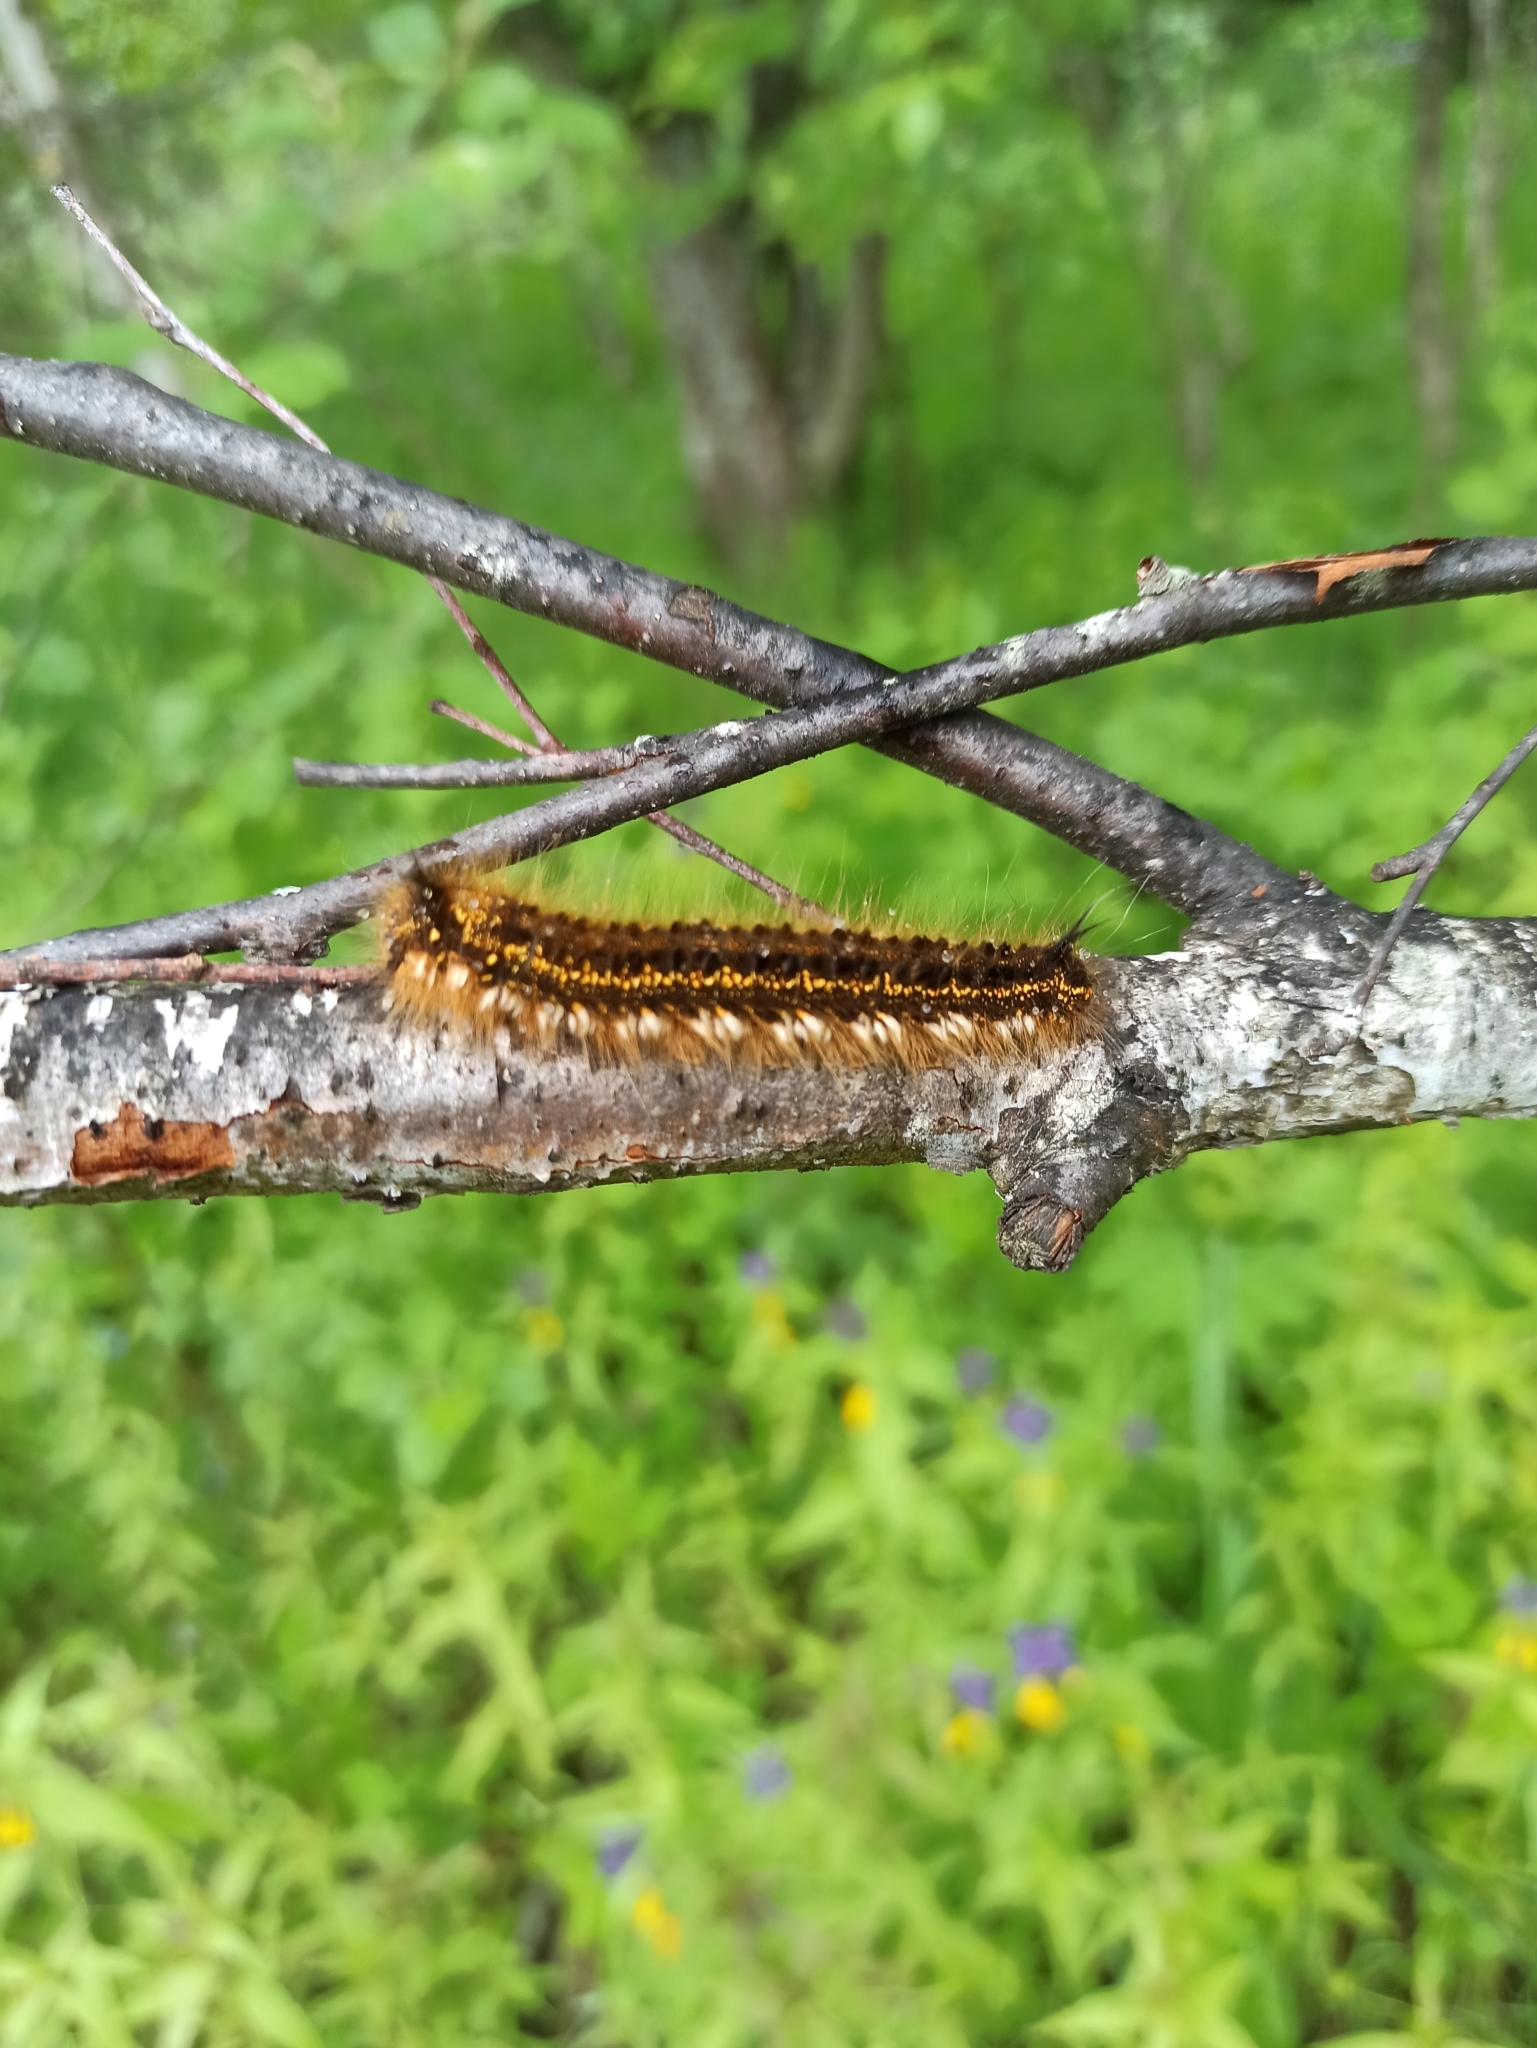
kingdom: Animalia
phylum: Arthropoda
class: Insecta
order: Lepidoptera
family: Lasiocampidae
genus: Euthrix
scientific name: Euthrix potatoria
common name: Drinker
